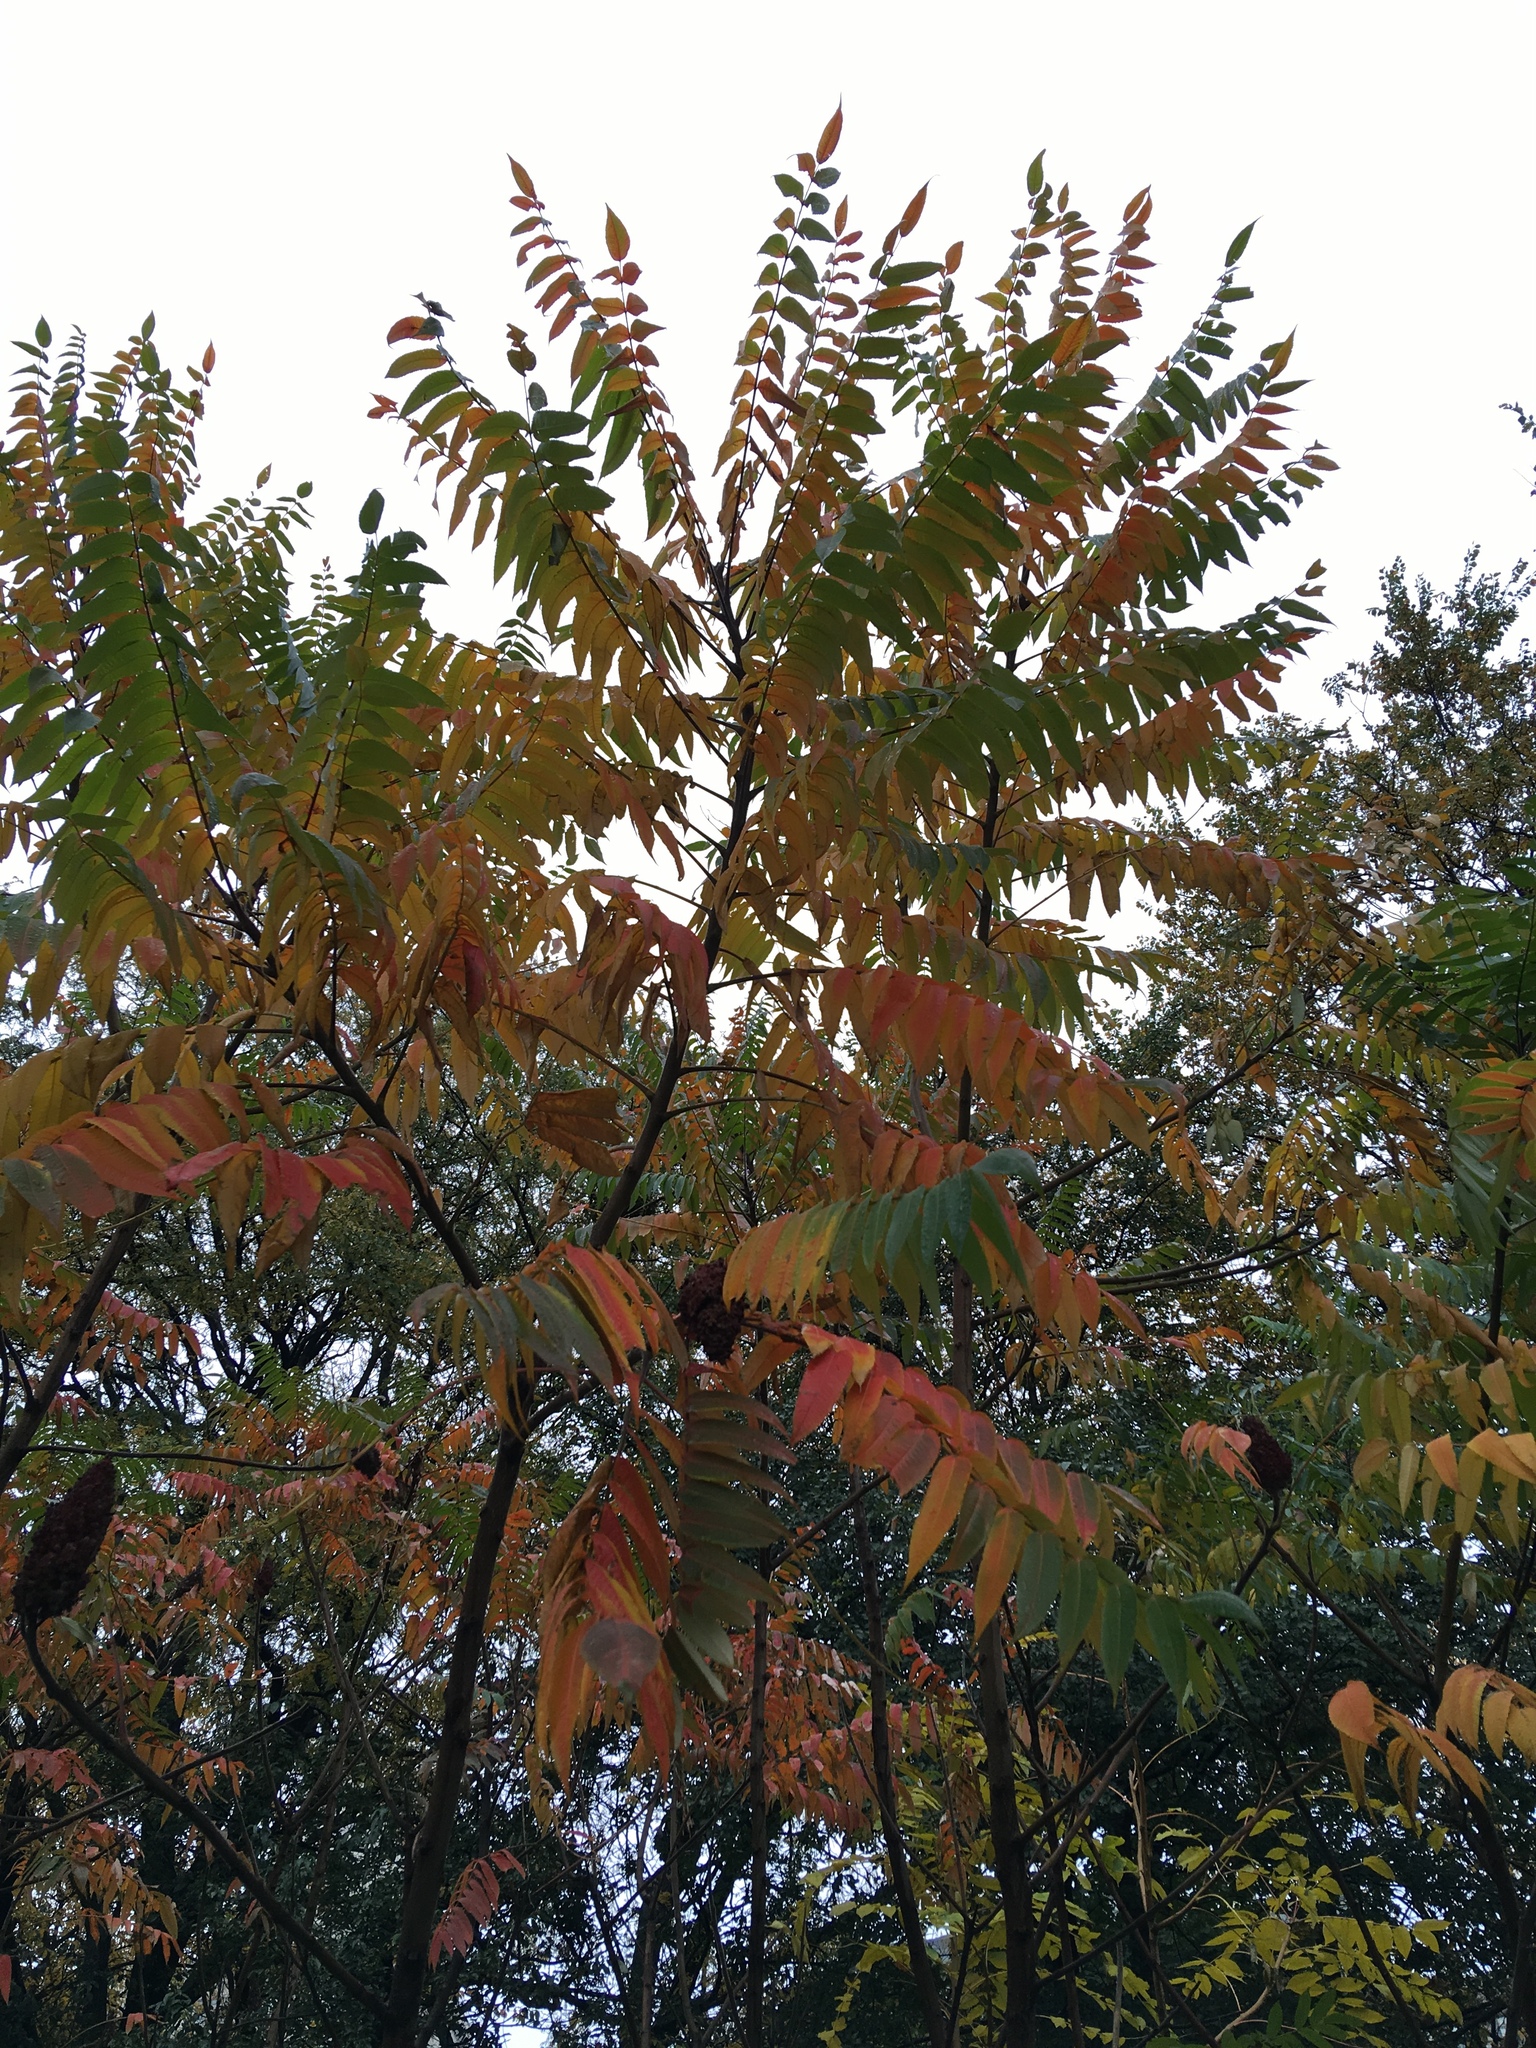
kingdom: Plantae
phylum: Tracheophyta
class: Magnoliopsida
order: Sapindales
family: Anacardiaceae
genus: Rhus
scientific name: Rhus typhina
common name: Staghorn sumac
